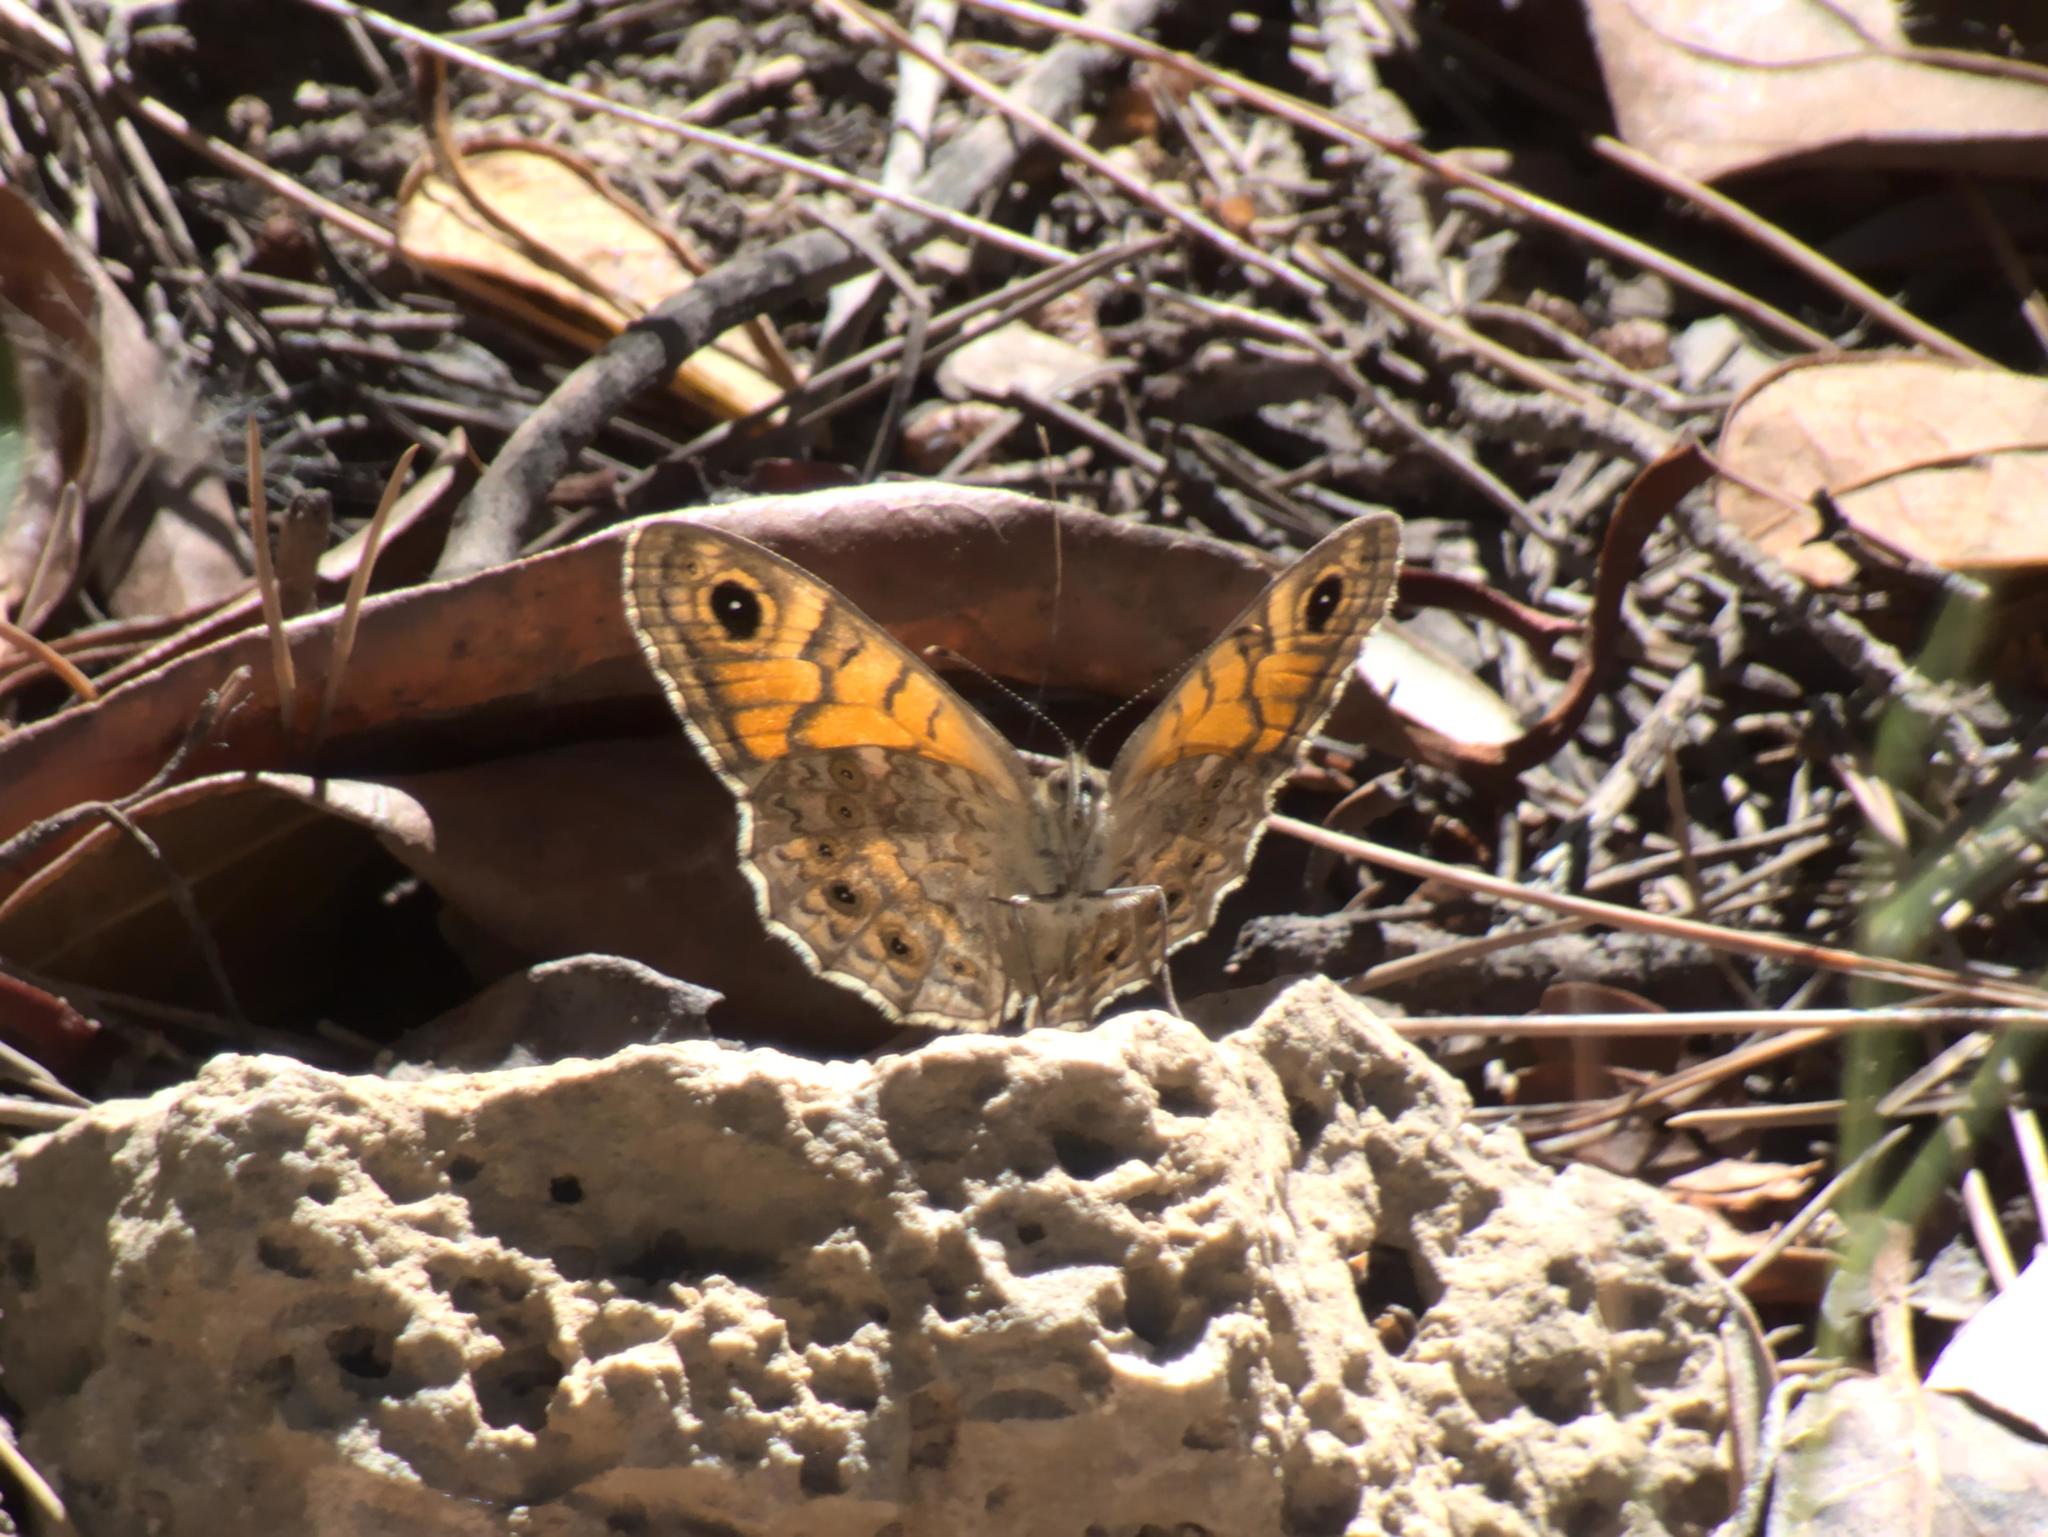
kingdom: Animalia
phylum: Arthropoda
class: Insecta
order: Lepidoptera
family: Nymphalidae
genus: Pararge
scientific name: Pararge Lasiommata megera
